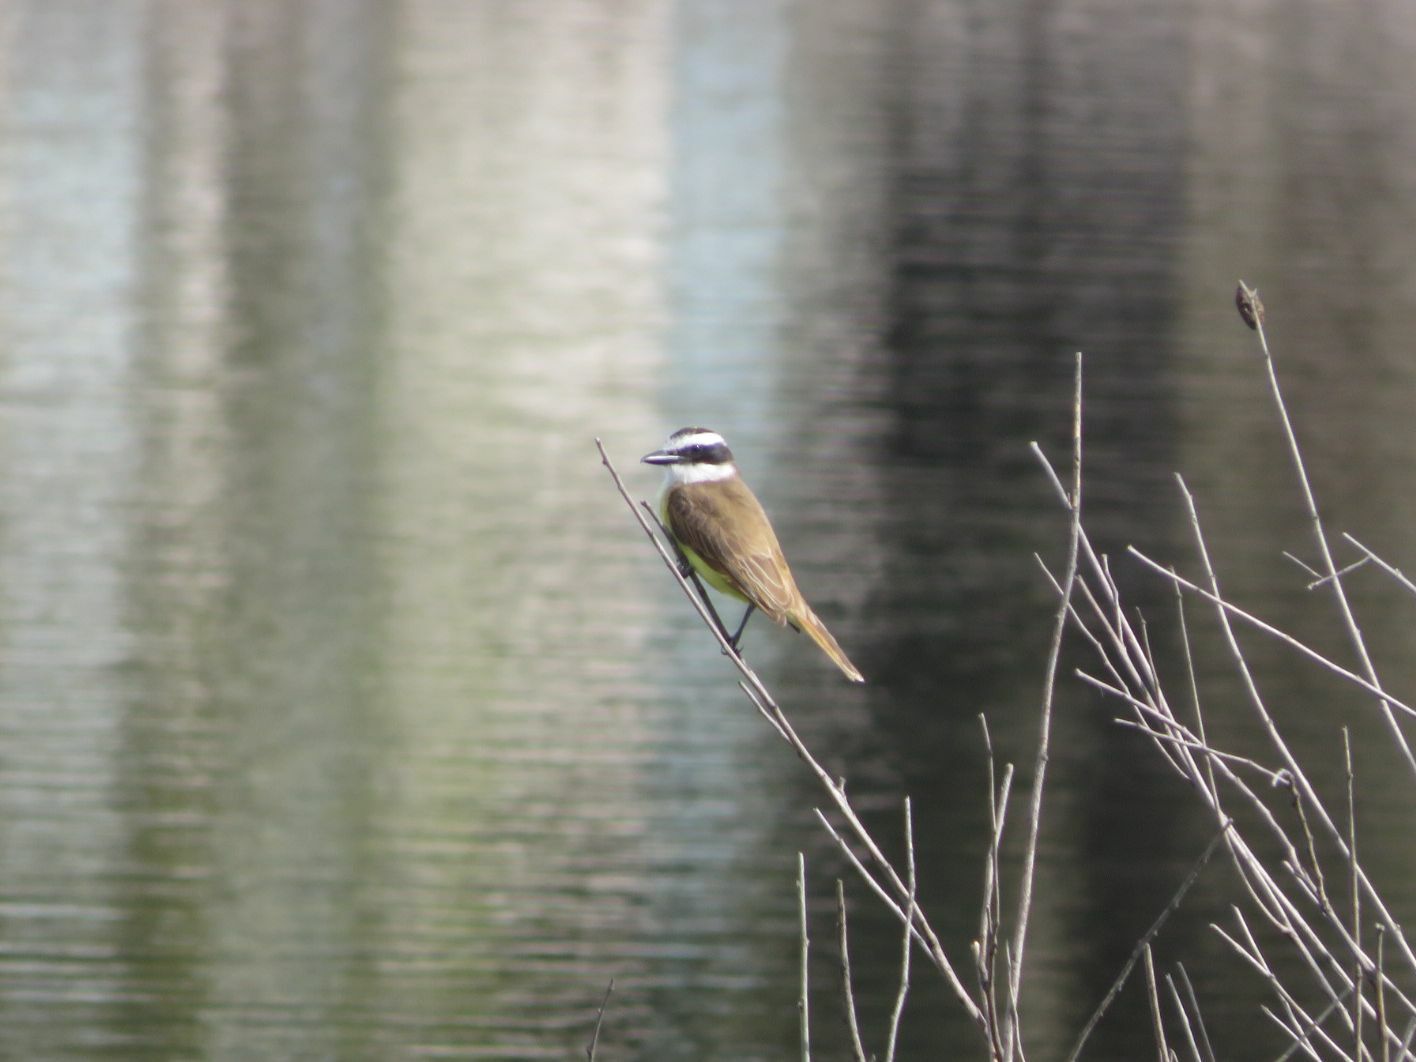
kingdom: Animalia
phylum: Chordata
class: Aves
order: Passeriformes
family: Tyrannidae
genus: Pitangus
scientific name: Pitangus sulphuratus
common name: Great kiskadee
